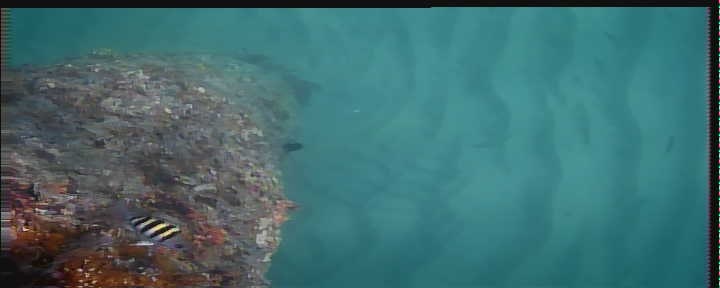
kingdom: Animalia
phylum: Chordata
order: Perciformes
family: Pomacentridae
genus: Abudefduf
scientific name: Abudefduf saxatilis
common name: Sergeant major
